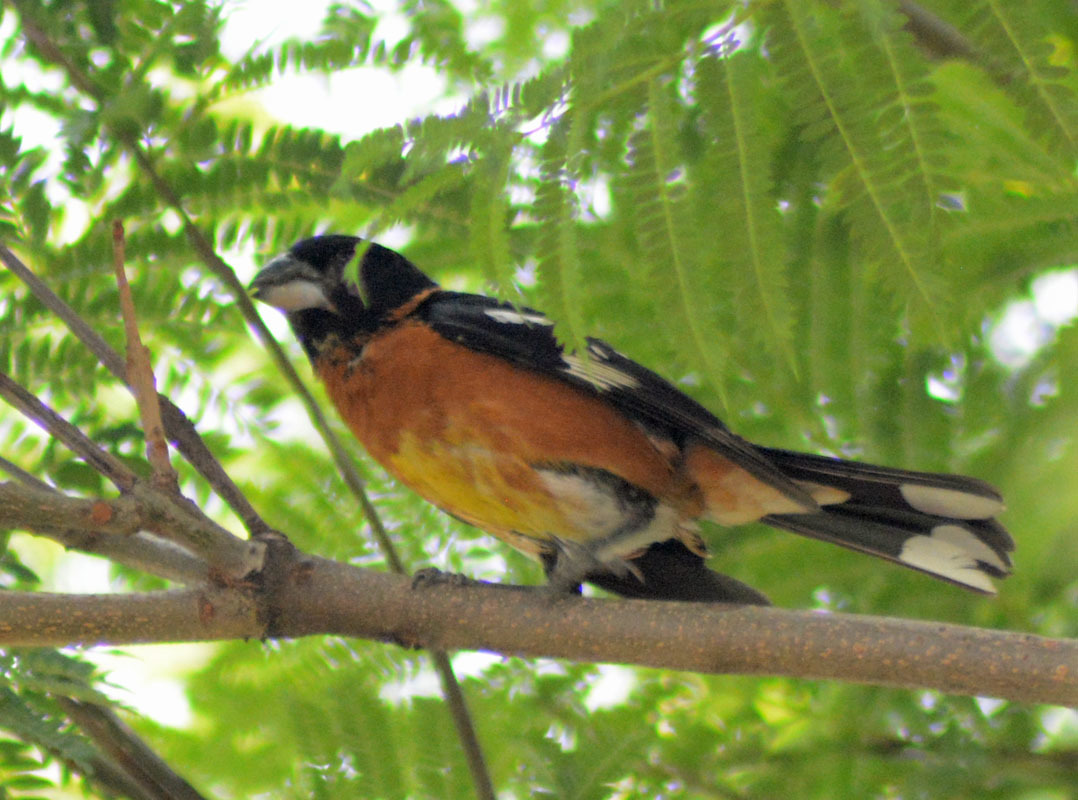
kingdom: Animalia
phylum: Chordata
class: Aves
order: Passeriformes
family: Cardinalidae
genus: Pheucticus
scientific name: Pheucticus melanocephalus
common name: Black-headed grosbeak
